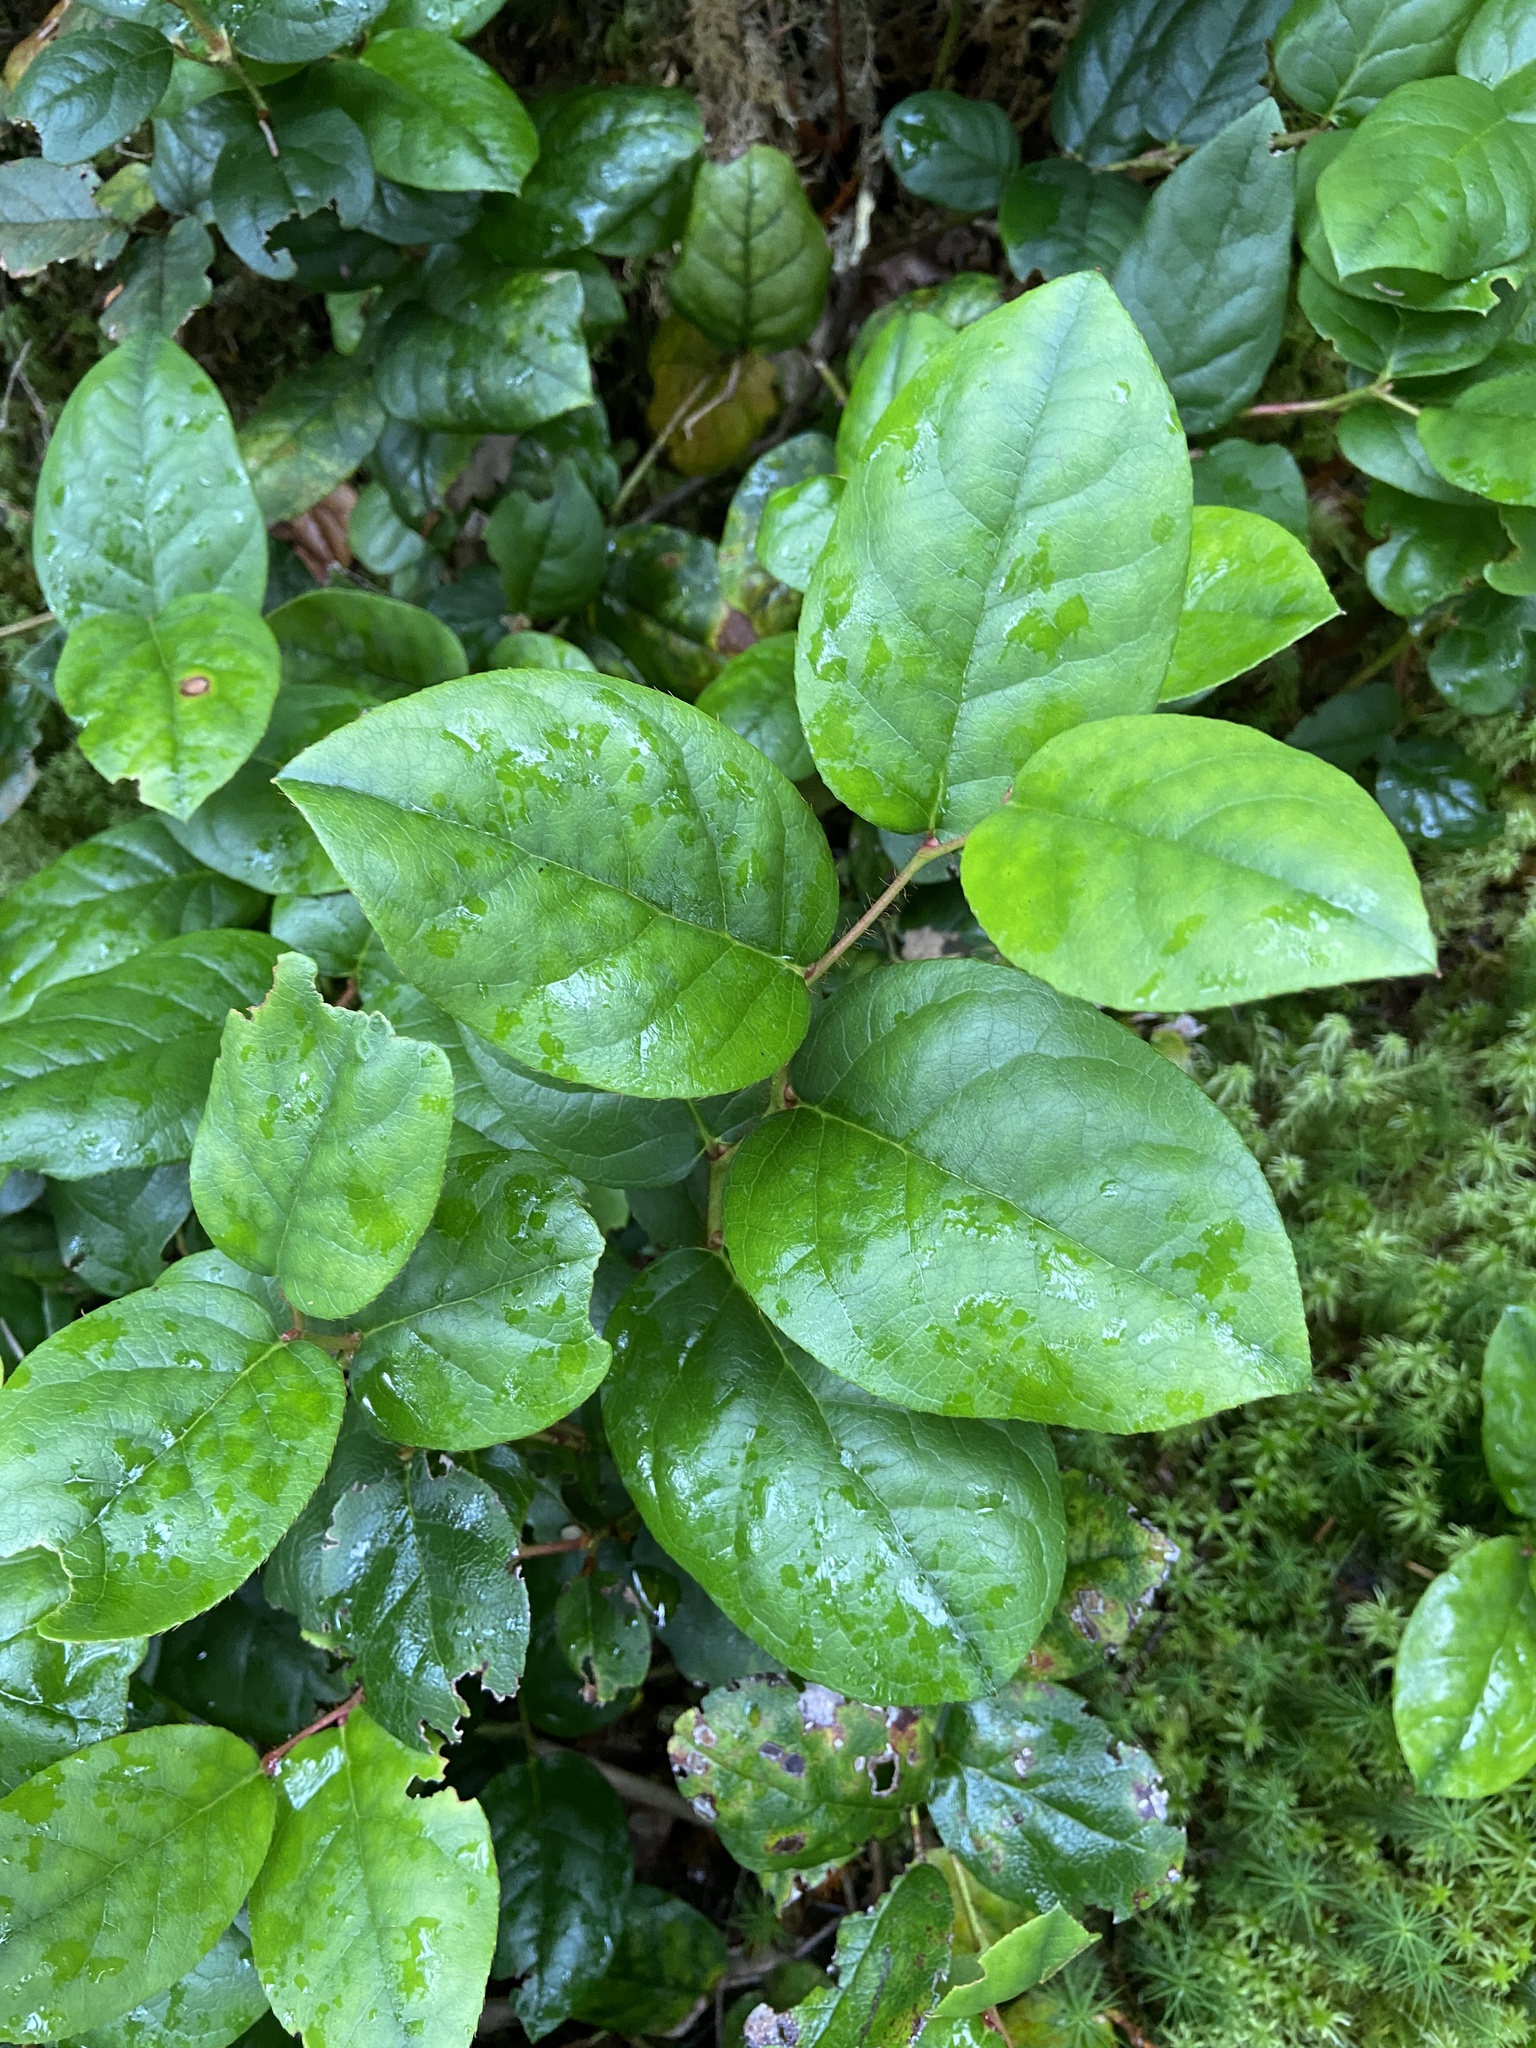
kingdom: Plantae
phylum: Tracheophyta
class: Magnoliopsida
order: Ericales
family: Ericaceae
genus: Gaultheria
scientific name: Gaultheria shallon
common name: Shallon
